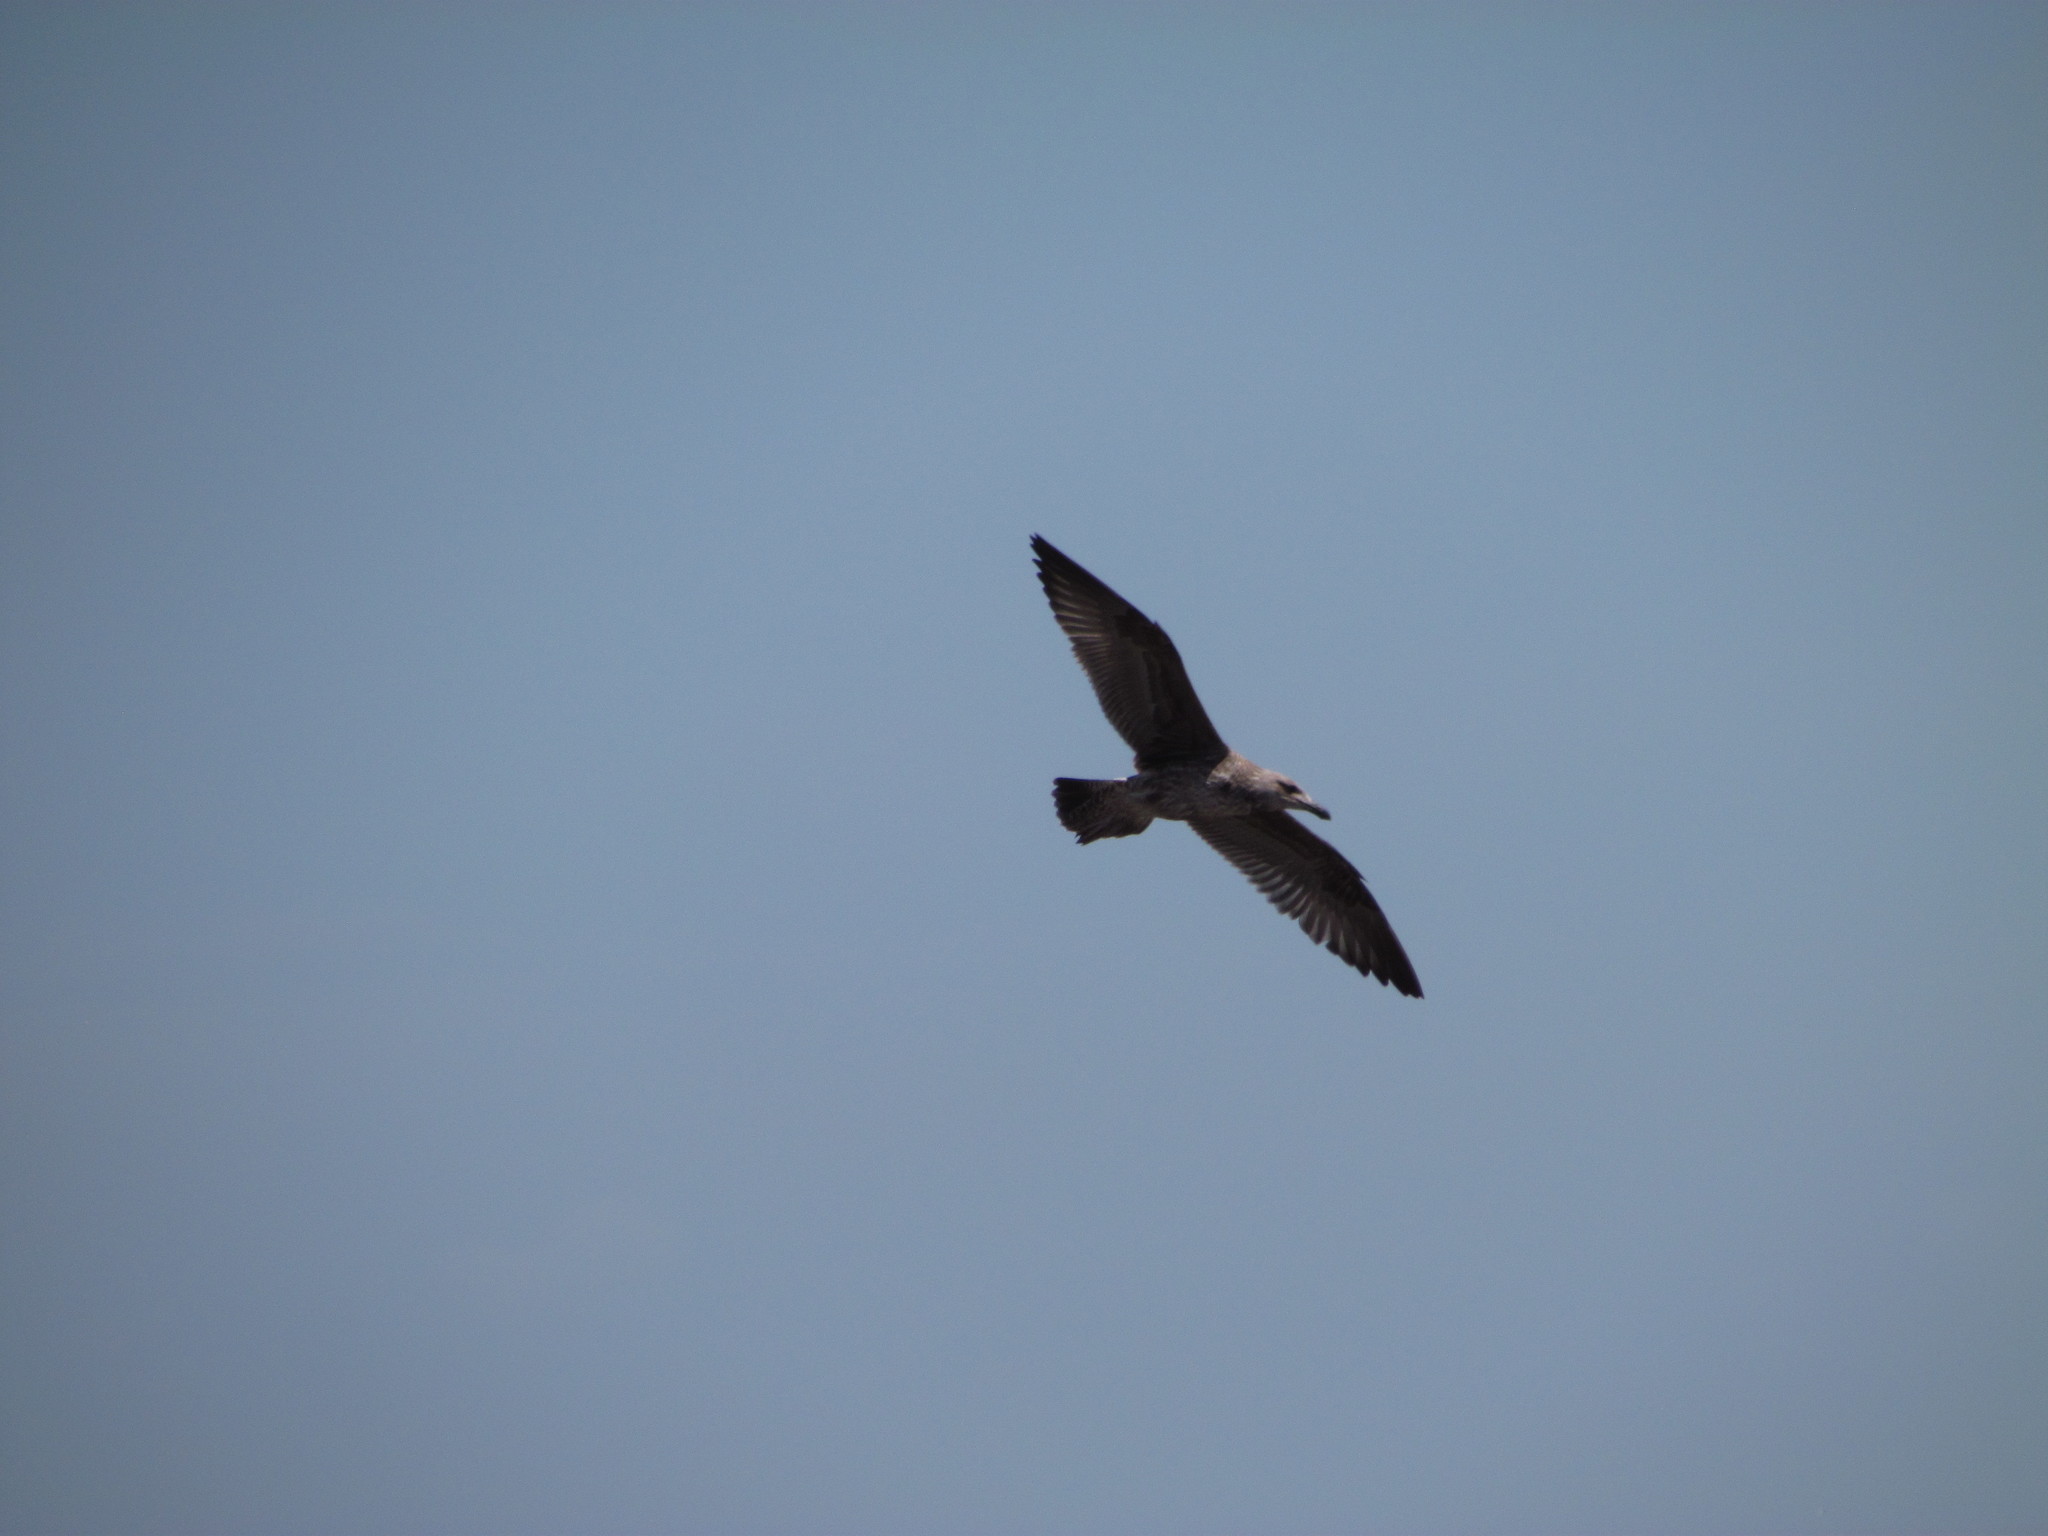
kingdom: Animalia
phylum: Chordata
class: Aves
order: Charadriiformes
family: Laridae
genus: Larus
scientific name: Larus dominicanus
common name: Kelp gull
